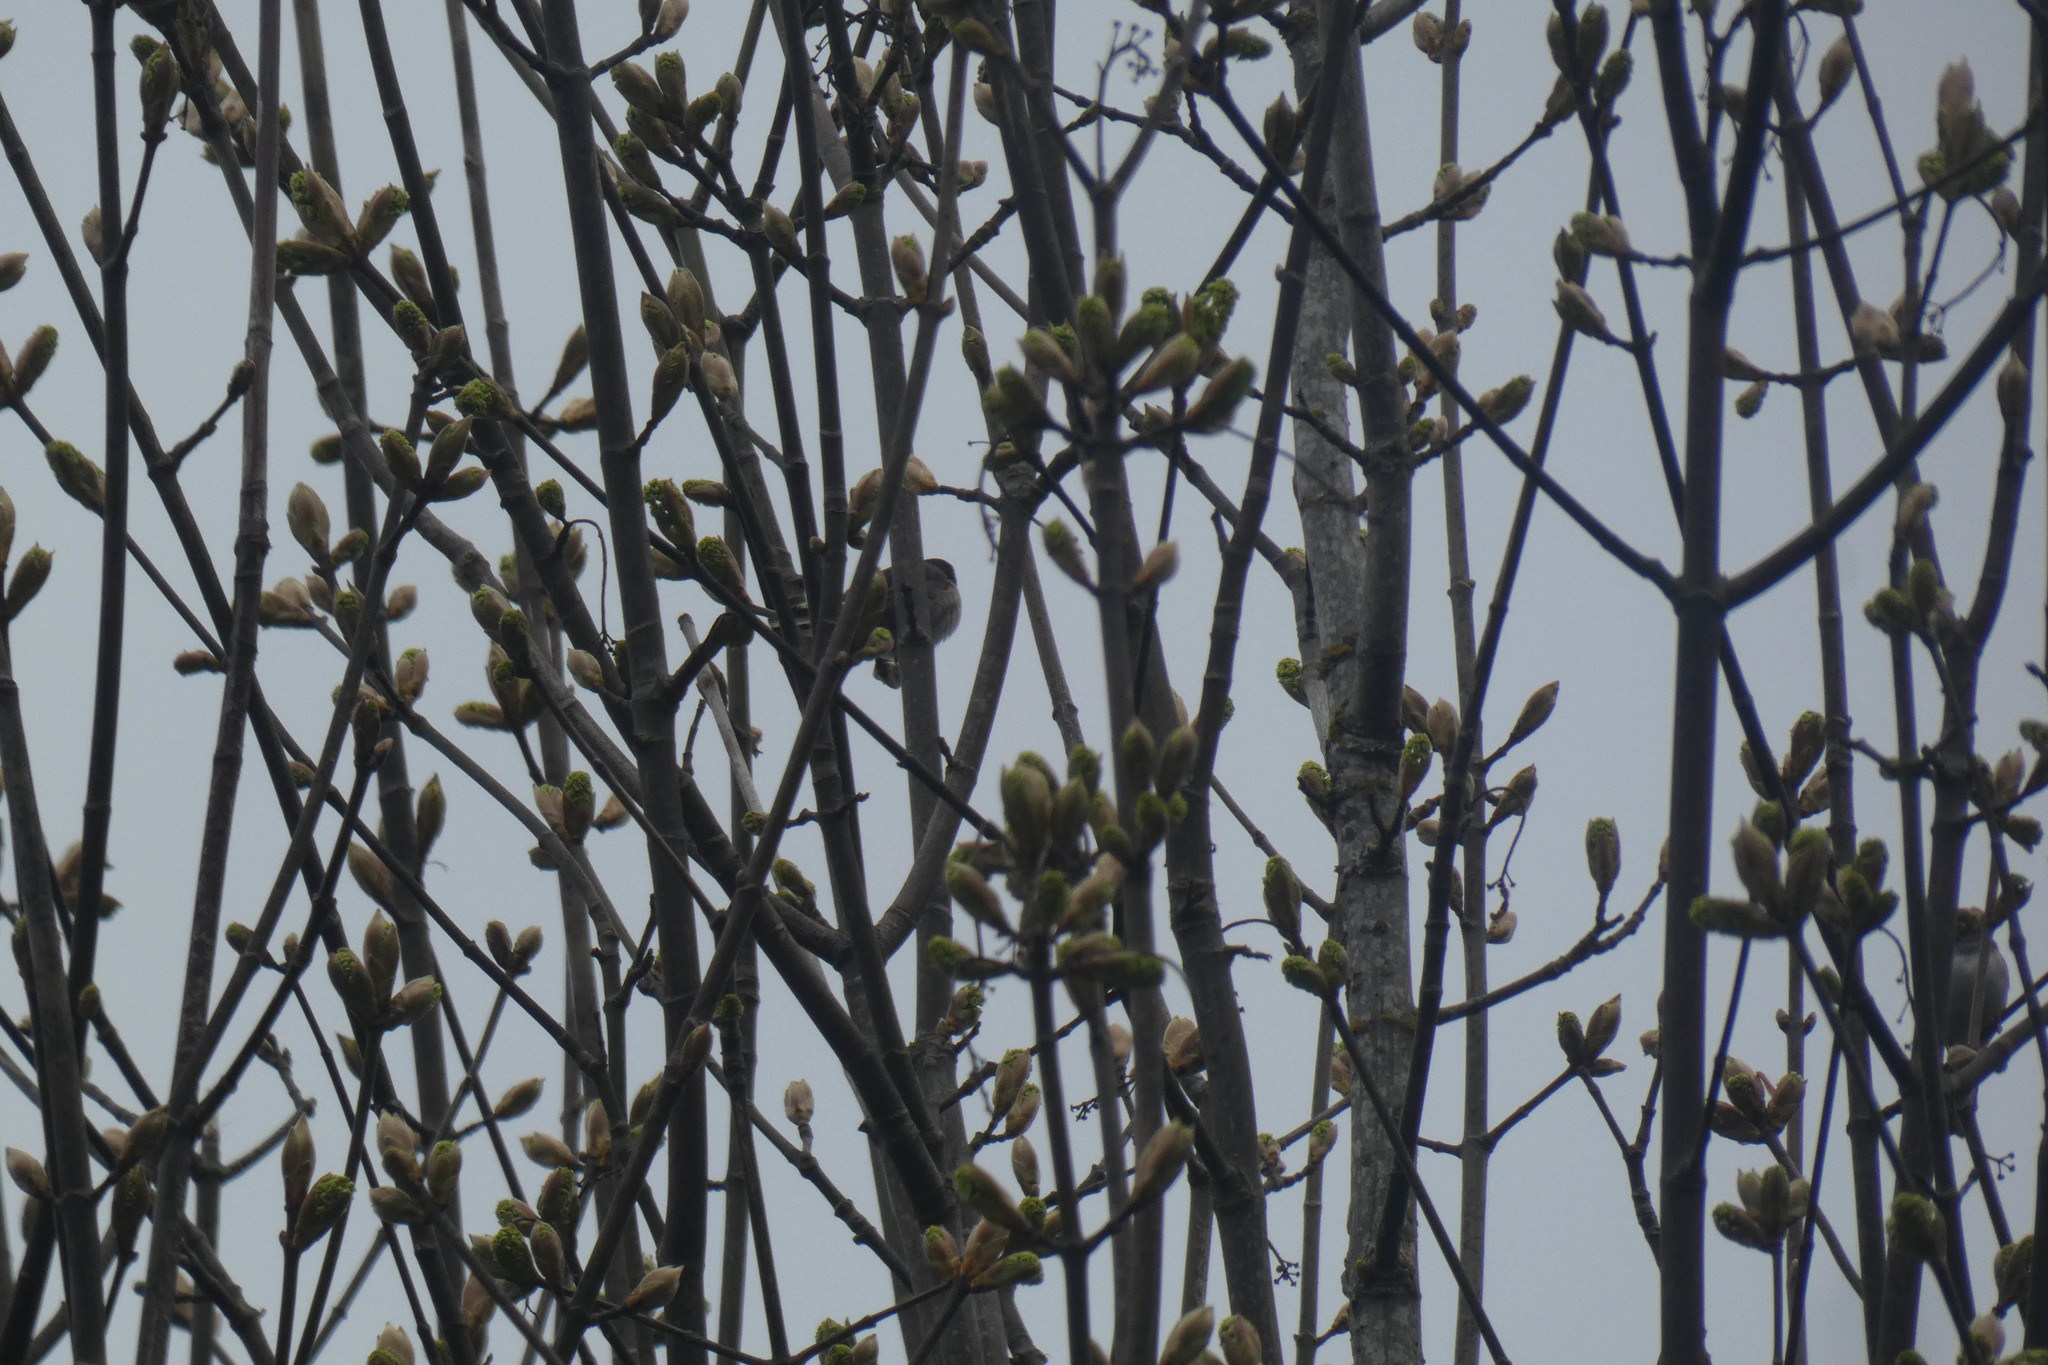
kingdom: Animalia
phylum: Chordata
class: Aves
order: Passeriformes
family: Passerellidae
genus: Junco
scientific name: Junco hyemalis
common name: Dark-eyed junco
